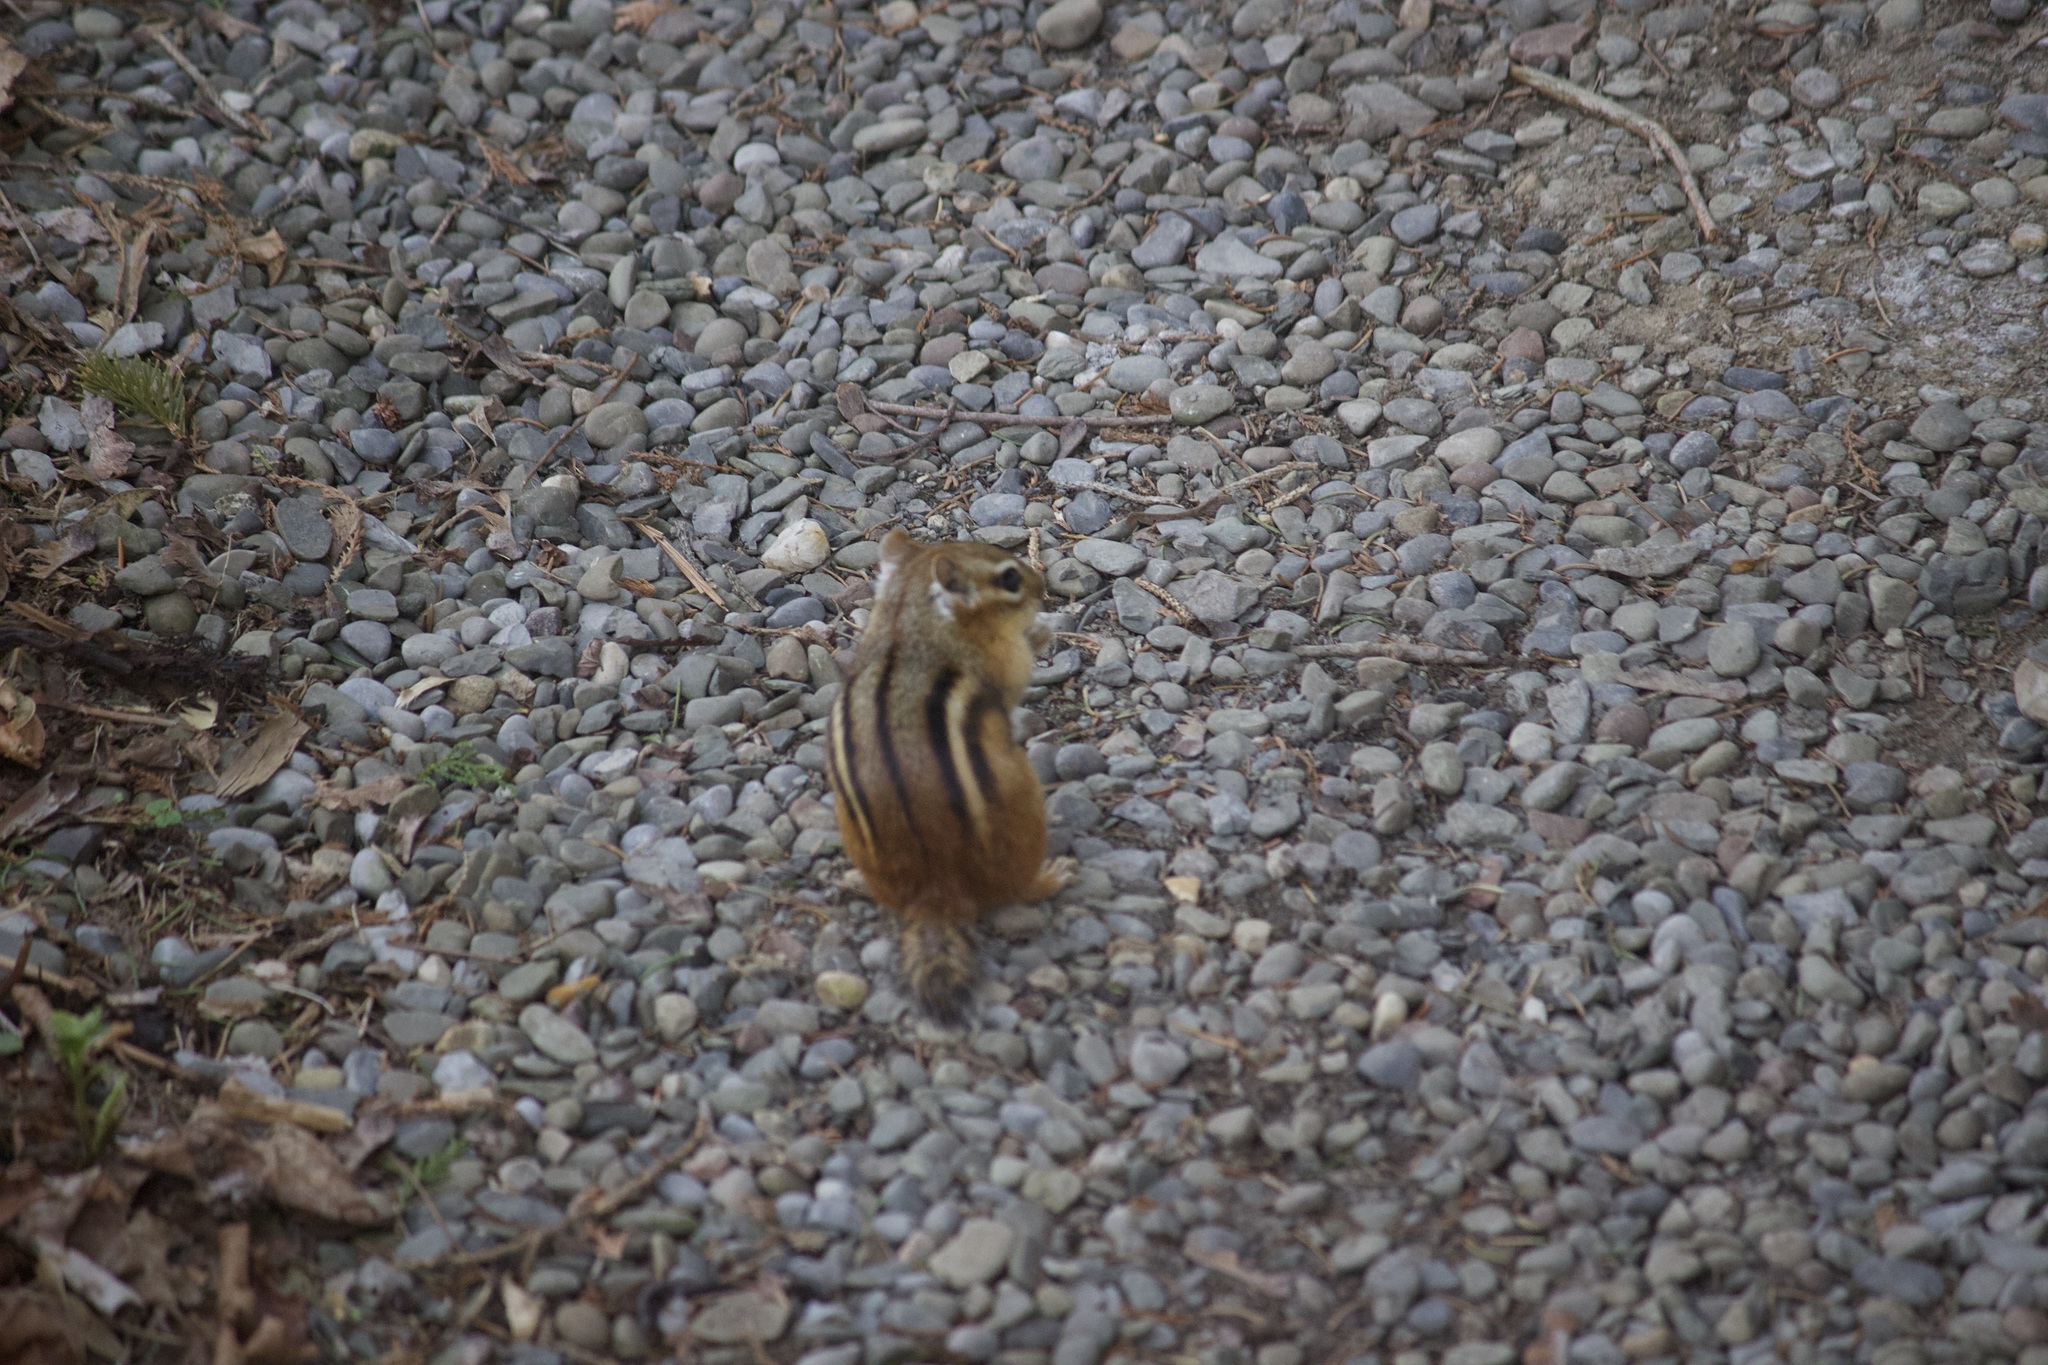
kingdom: Animalia
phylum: Chordata
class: Mammalia
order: Rodentia
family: Sciuridae
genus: Tamias
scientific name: Tamias striatus
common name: Eastern chipmunk
